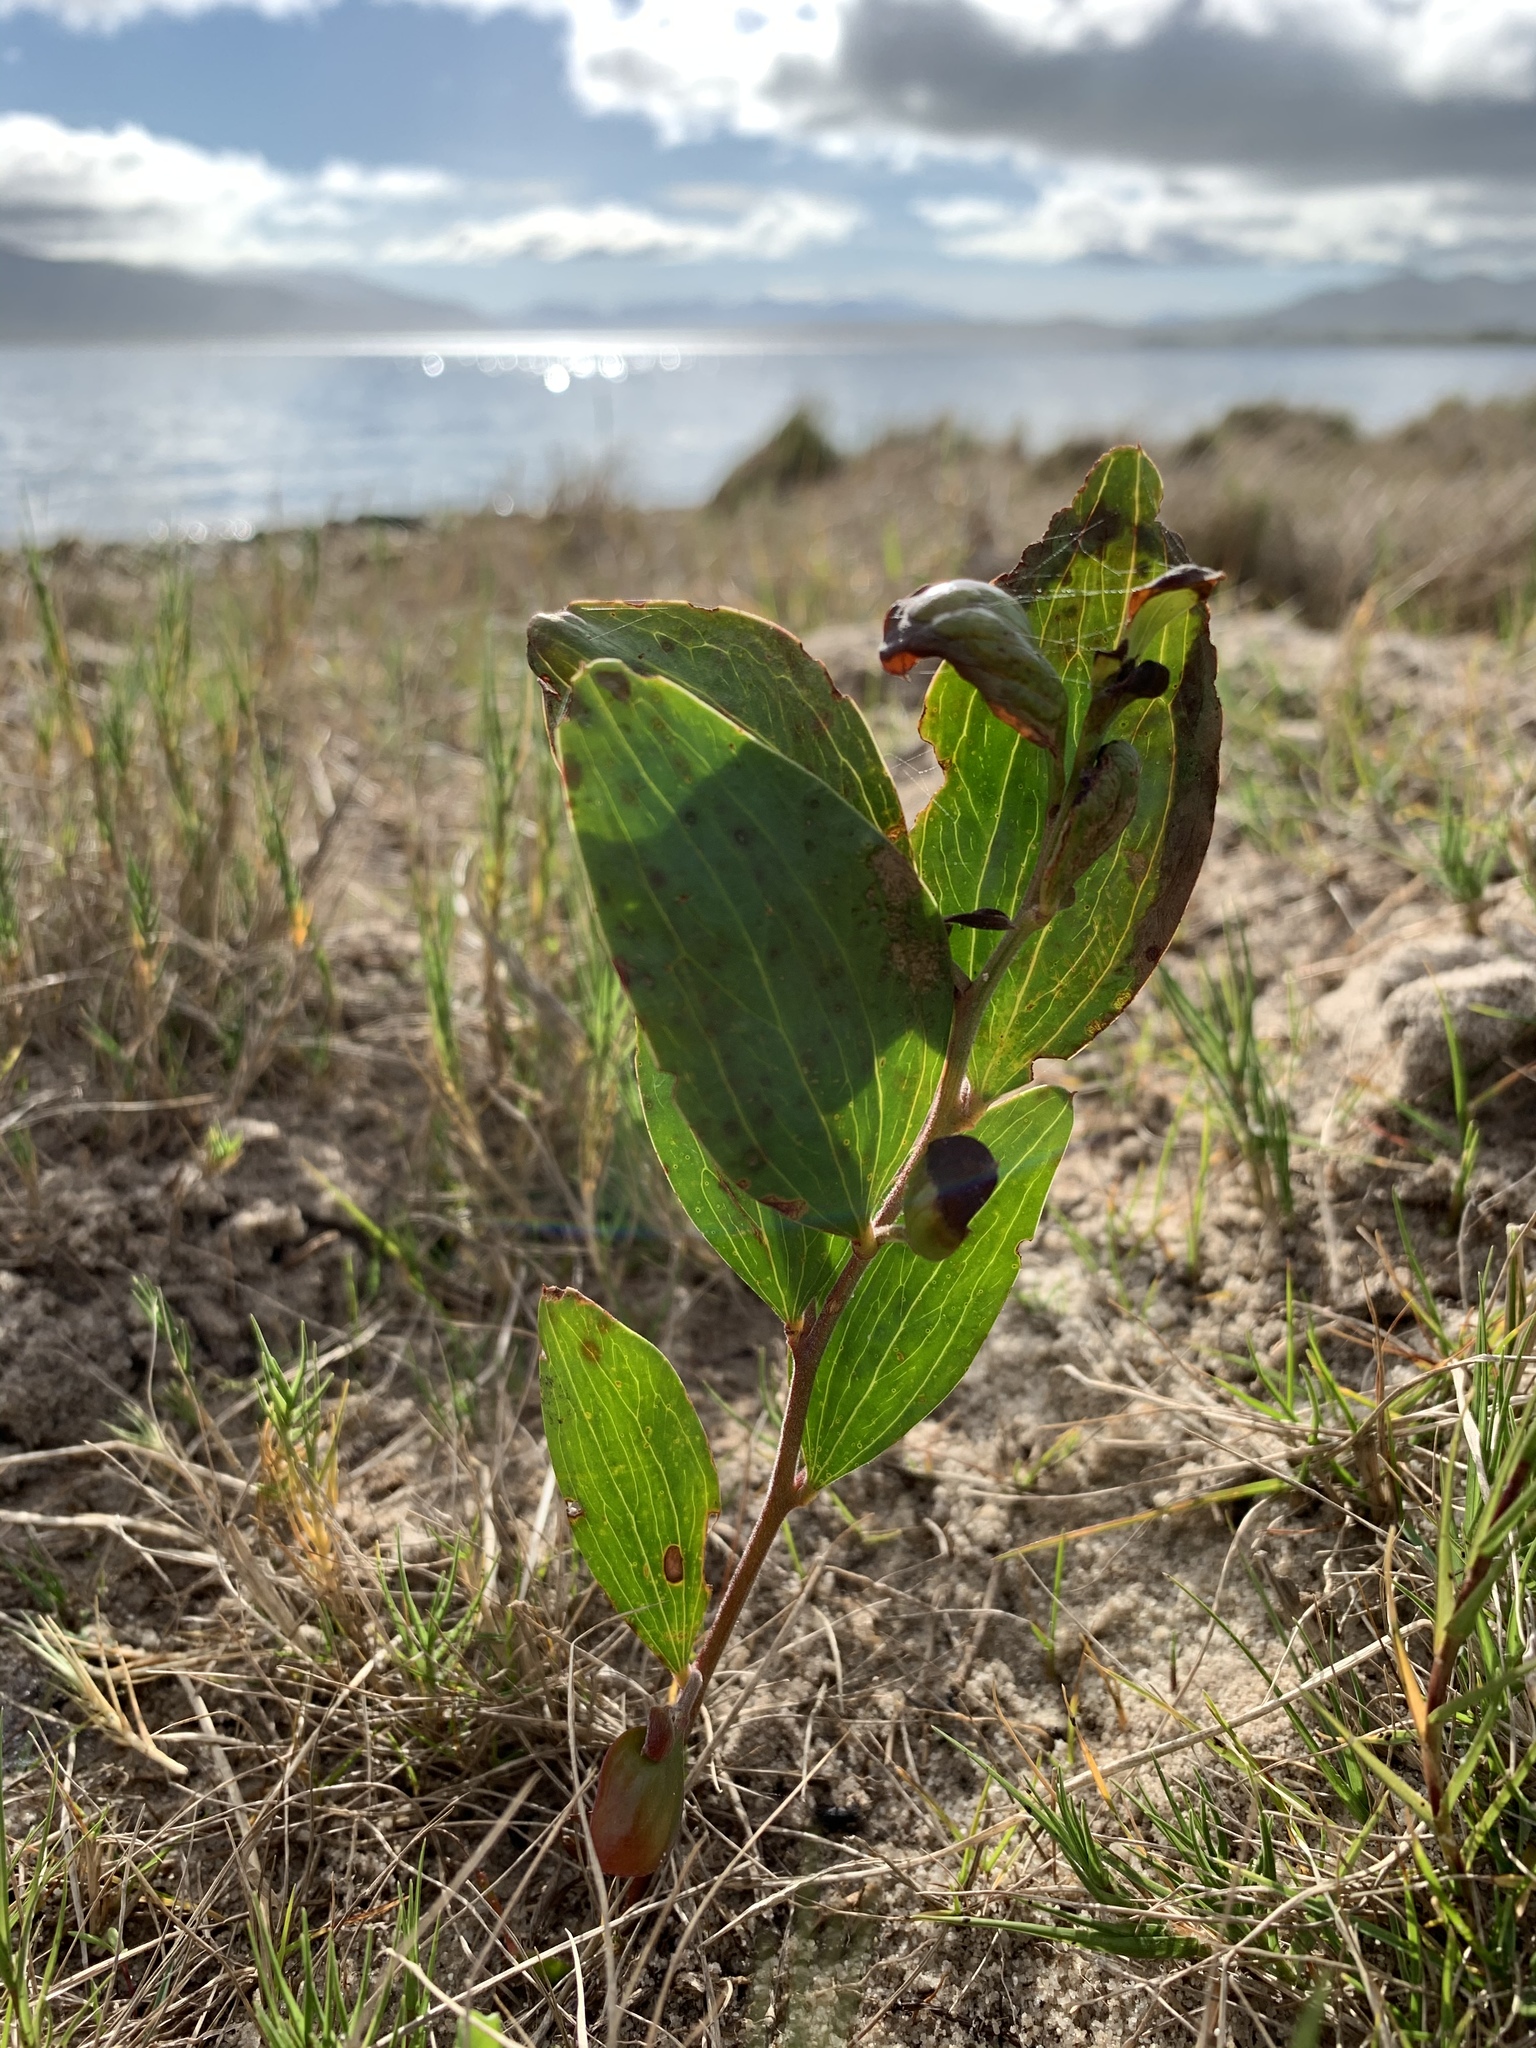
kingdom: Plantae
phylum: Tracheophyta
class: Magnoliopsida
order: Fabales
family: Fabaceae
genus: Acacia
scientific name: Acacia cyclops
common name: Coastal wattle
